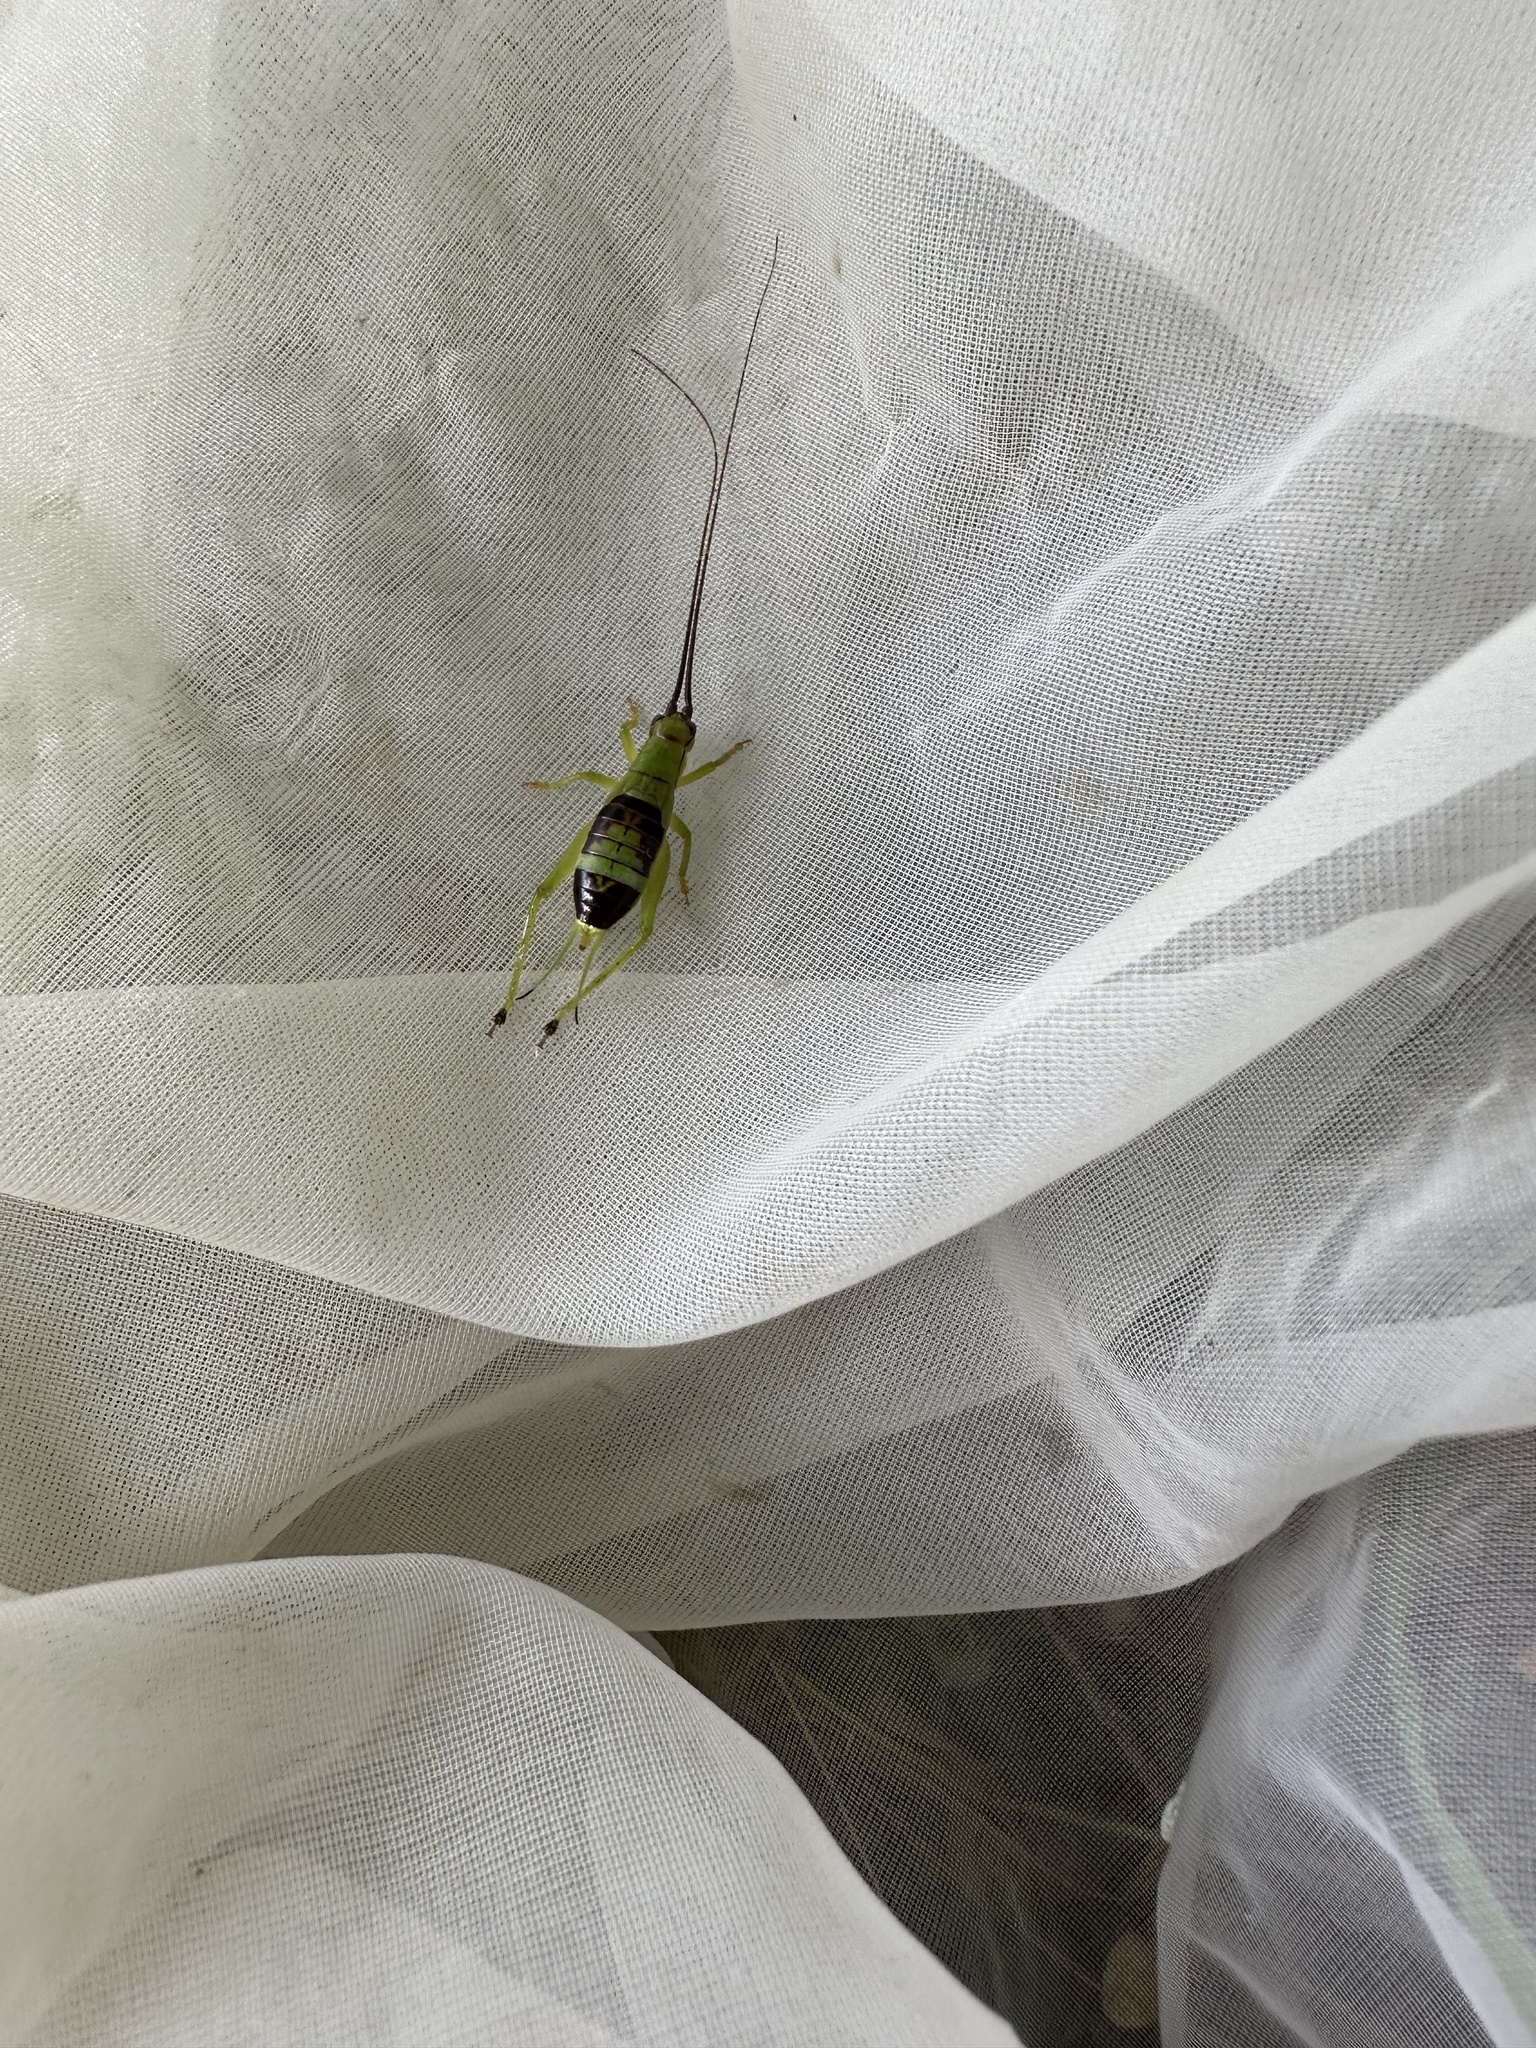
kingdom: Animalia
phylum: Arthropoda
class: Insecta
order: Orthoptera
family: Gryllidae
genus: Truljalia
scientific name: Truljalia hibinonis
